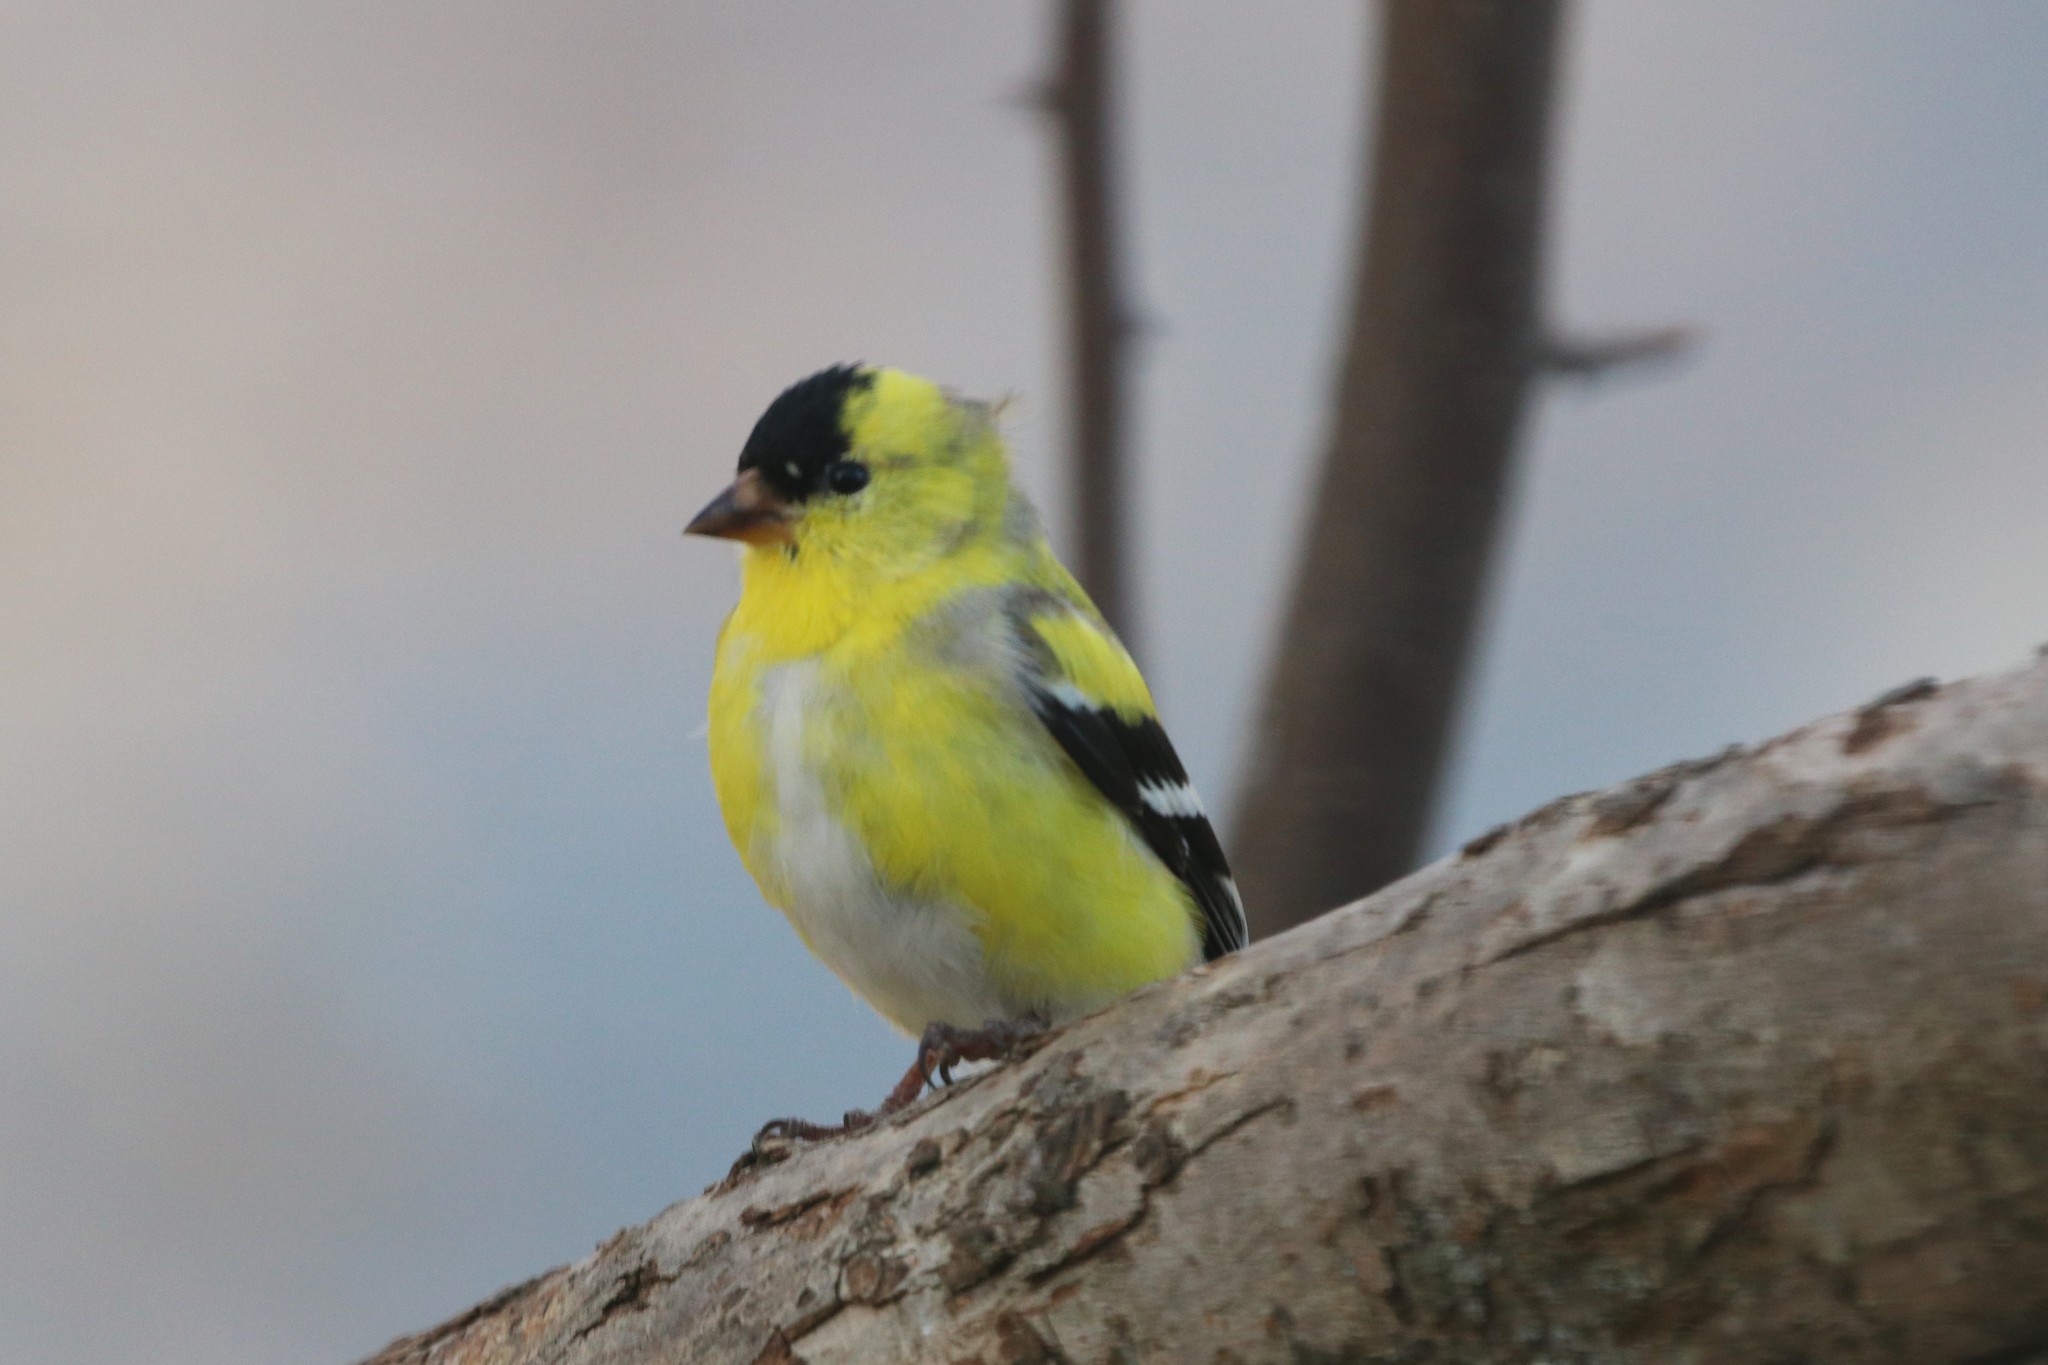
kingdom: Animalia
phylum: Chordata
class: Aves
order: Passeriformes
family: Fringillidae
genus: Spinus
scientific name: Spinus tristis
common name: American goldfinch
